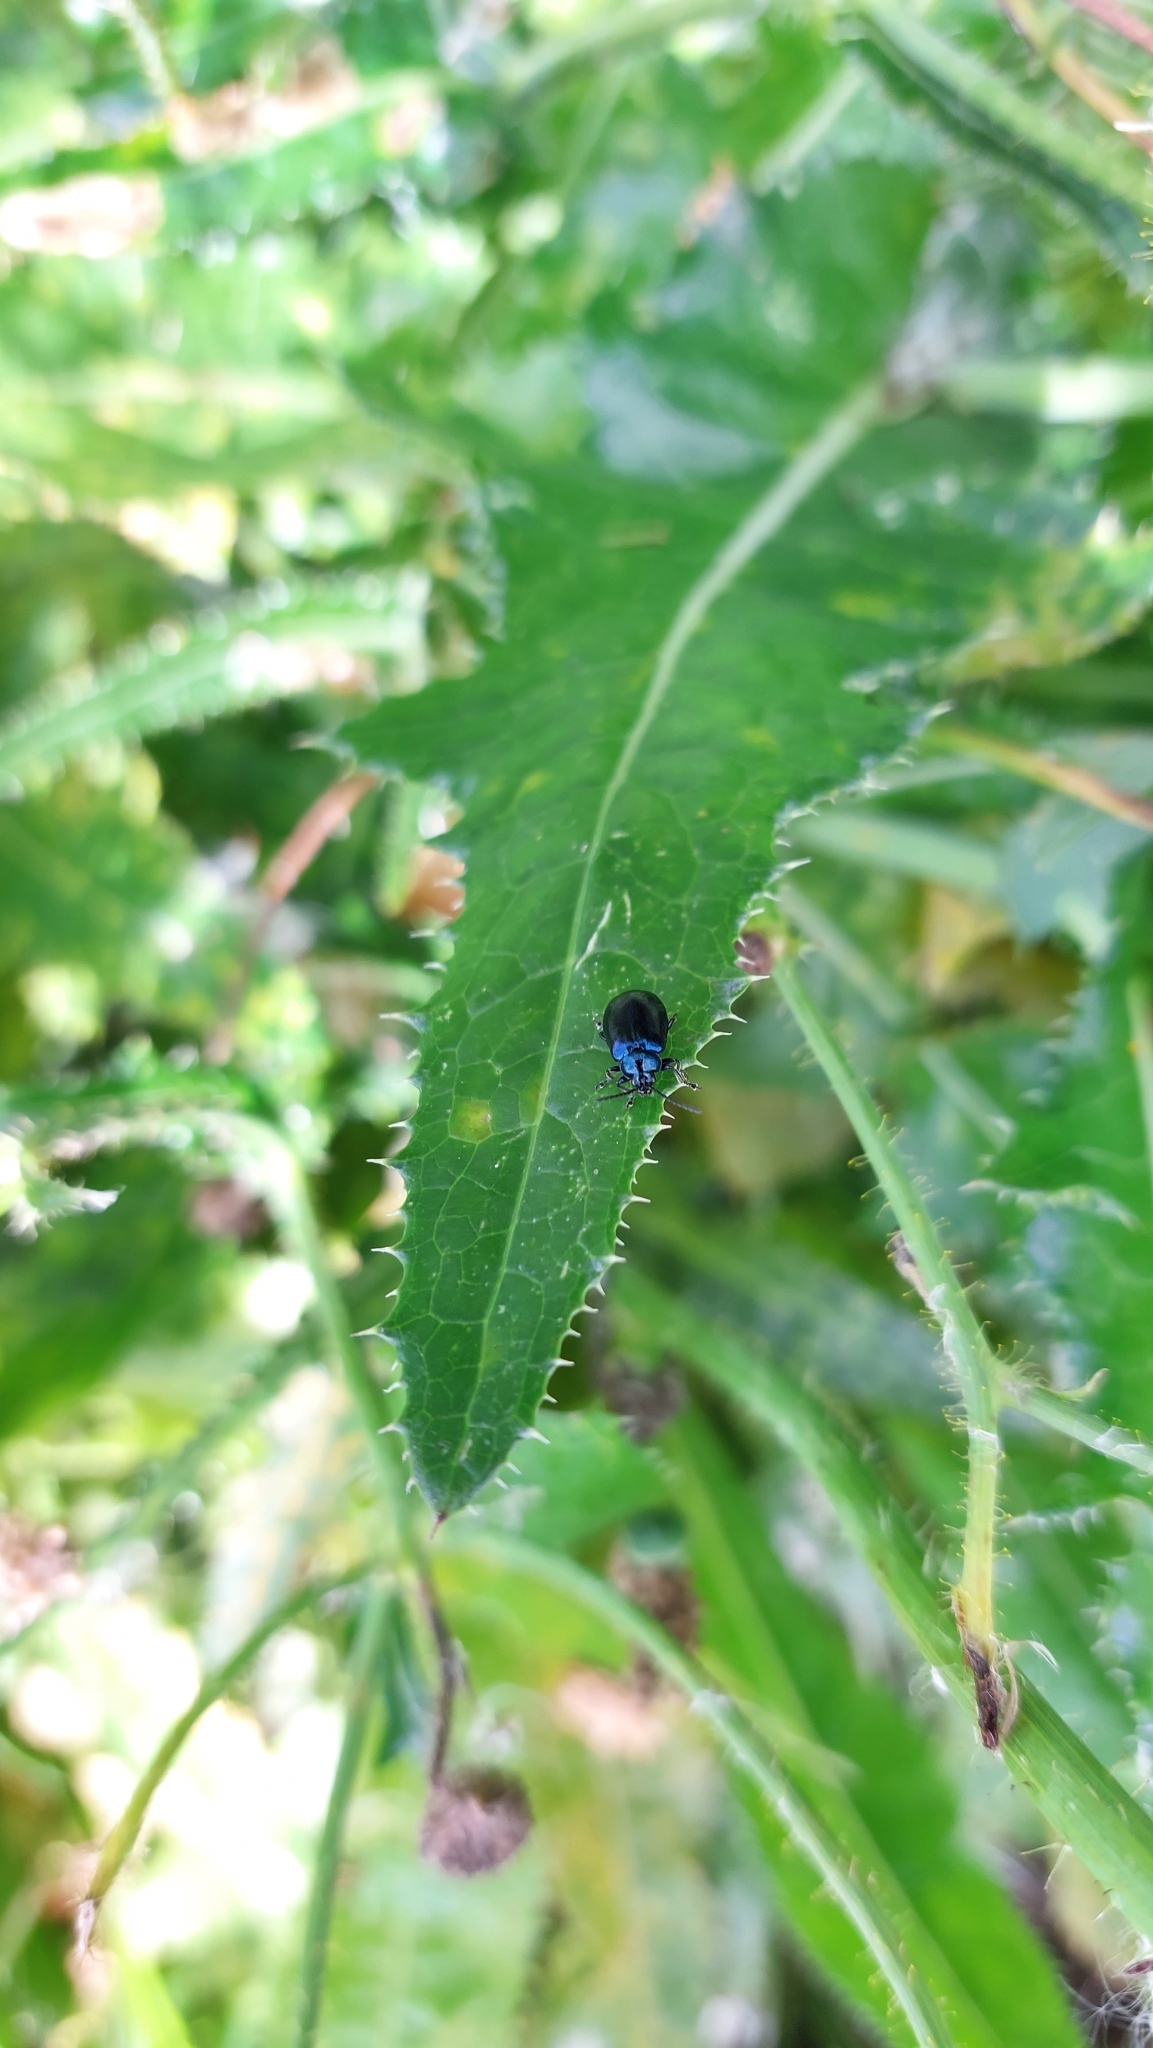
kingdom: Animalia
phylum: Arthropoda
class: Insecta
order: Coleoptera
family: Chrysomelidae
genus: Agelastica
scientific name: Agelastica alni
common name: Alder leaf beetle
